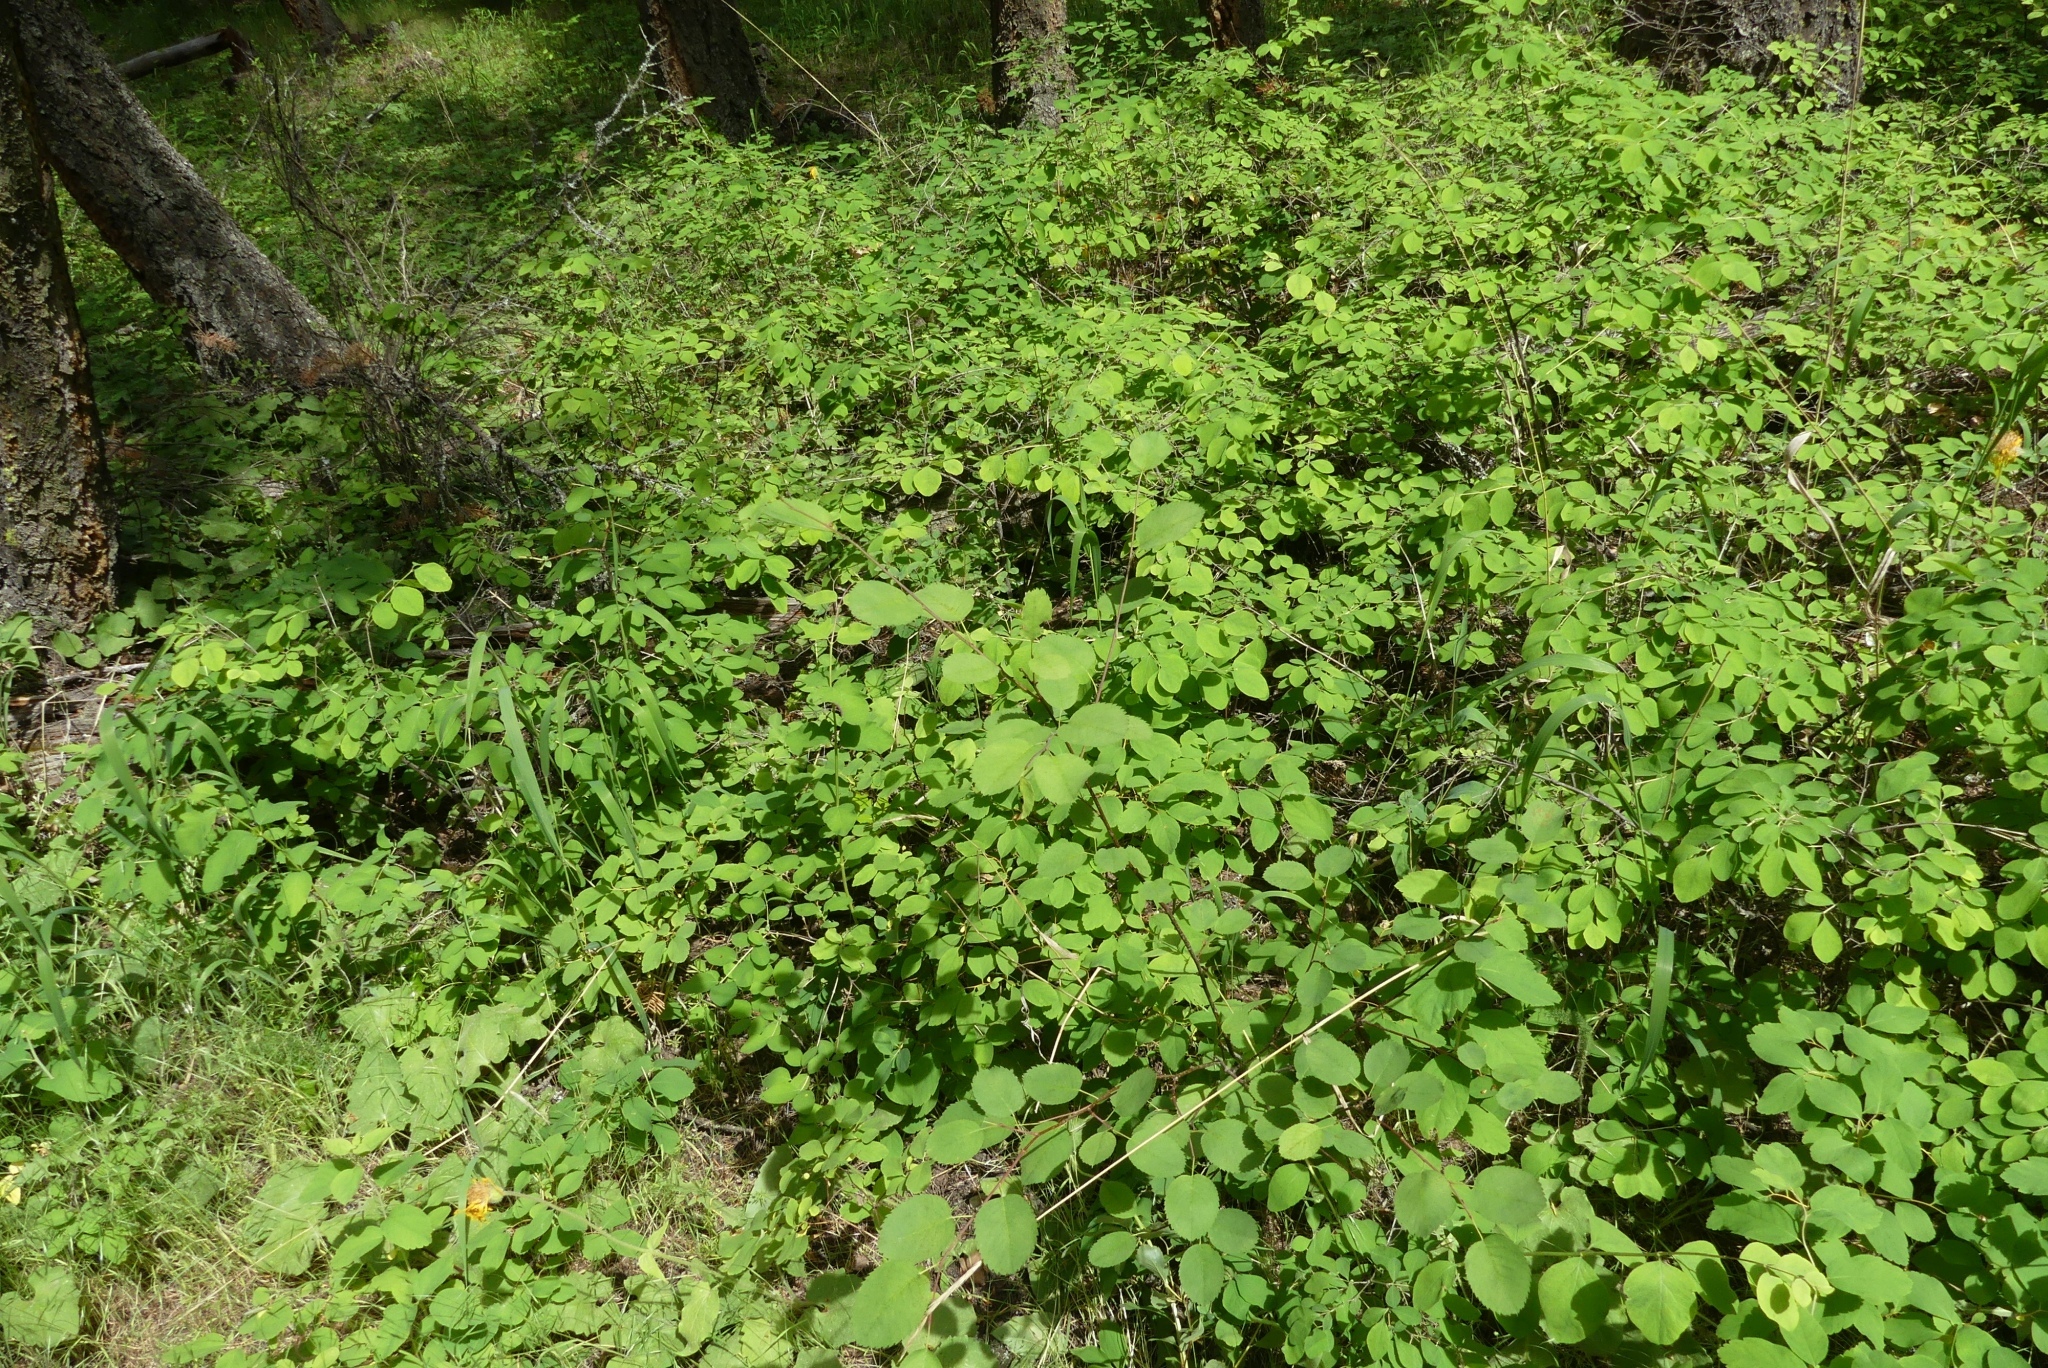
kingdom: Plantae
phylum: Tracheophyta
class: Magnoliopsida
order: Rosales
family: Rosaceae
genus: Amelanchier
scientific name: Amelanchier alnifolia
